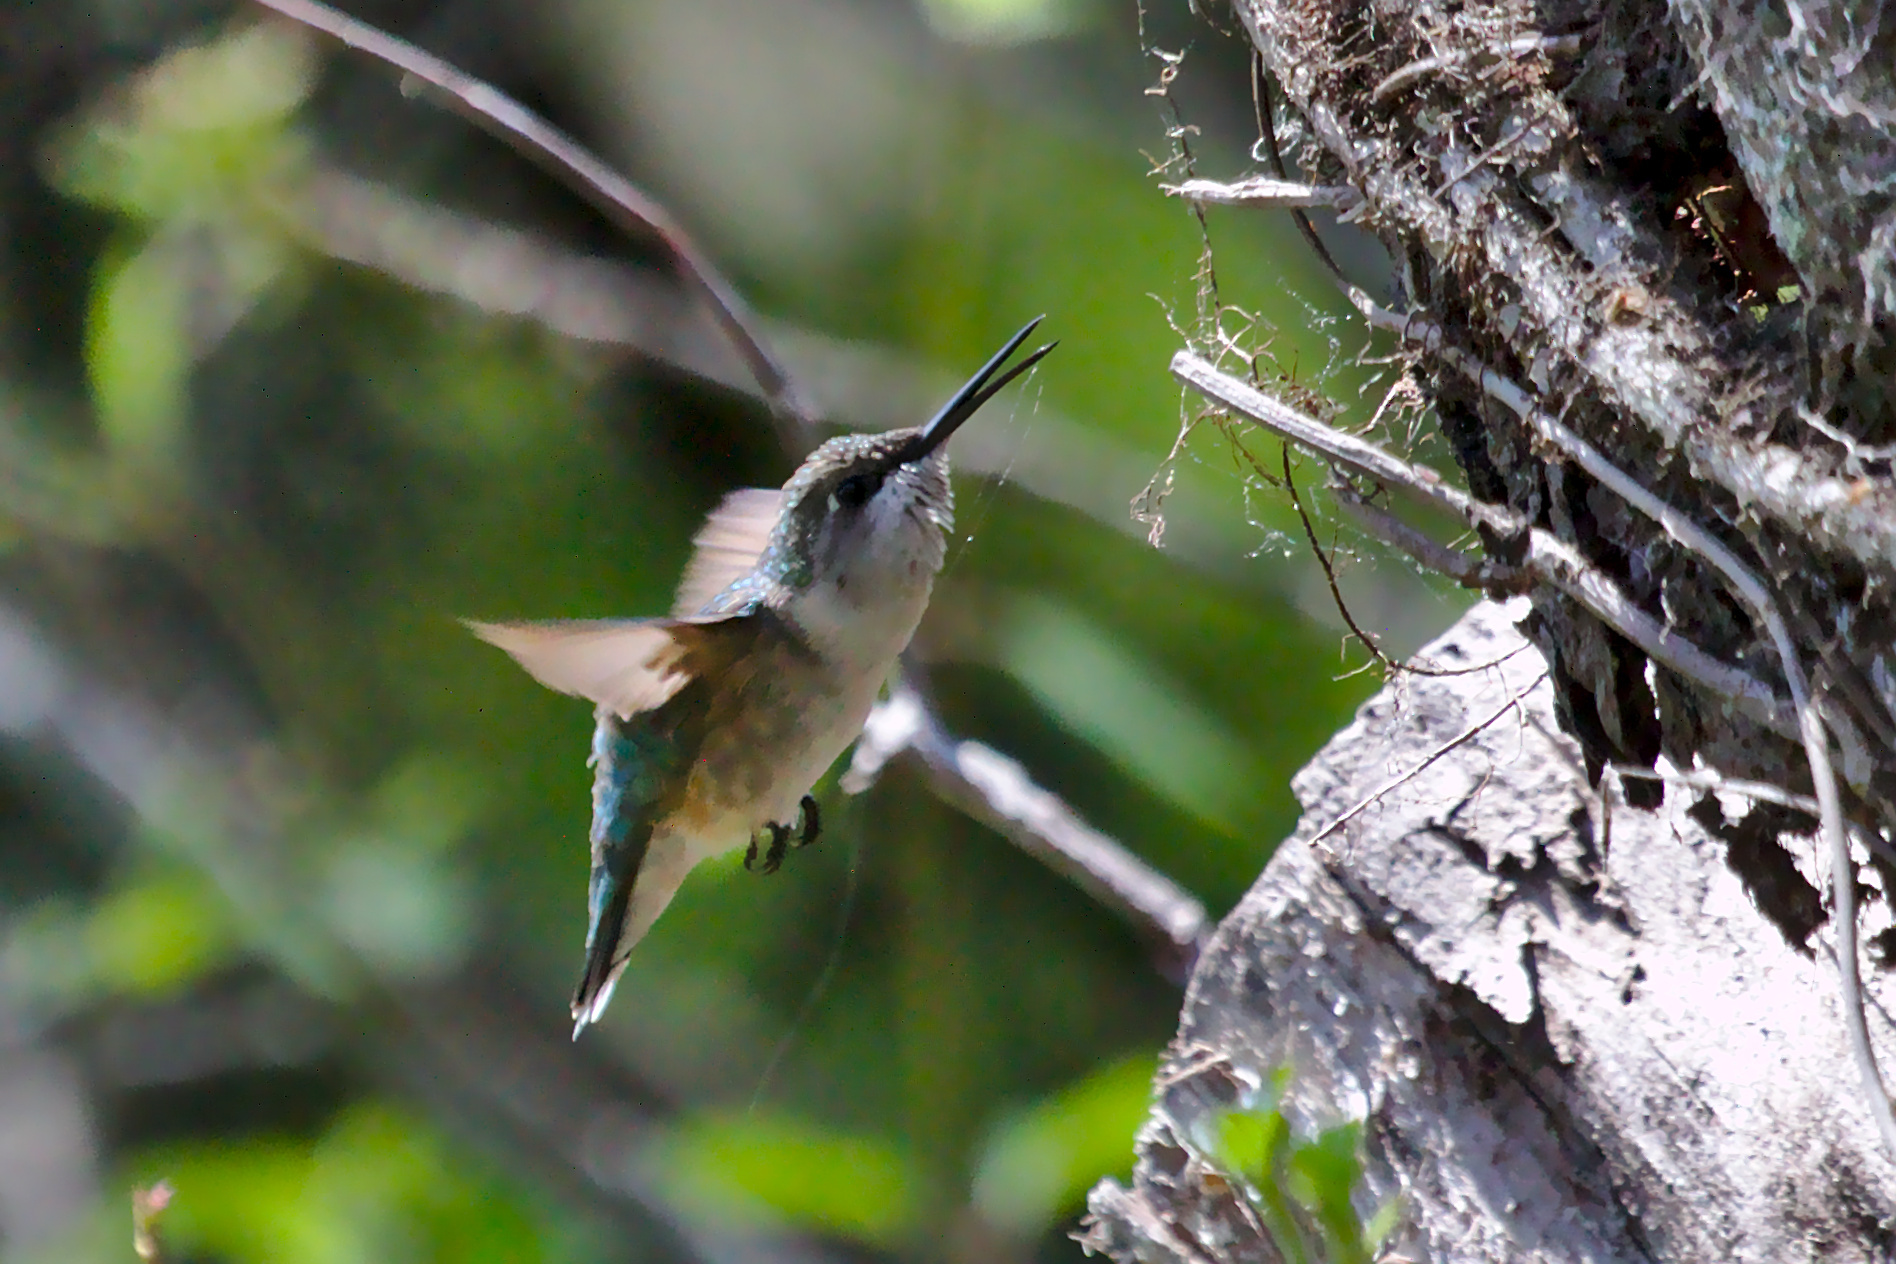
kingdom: Animalia
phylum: Chordata
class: Aves
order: Apodiformes
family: Trochilidae
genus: Archilochus
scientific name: Archilochus colubris
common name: Ruby-throated hummingbird
